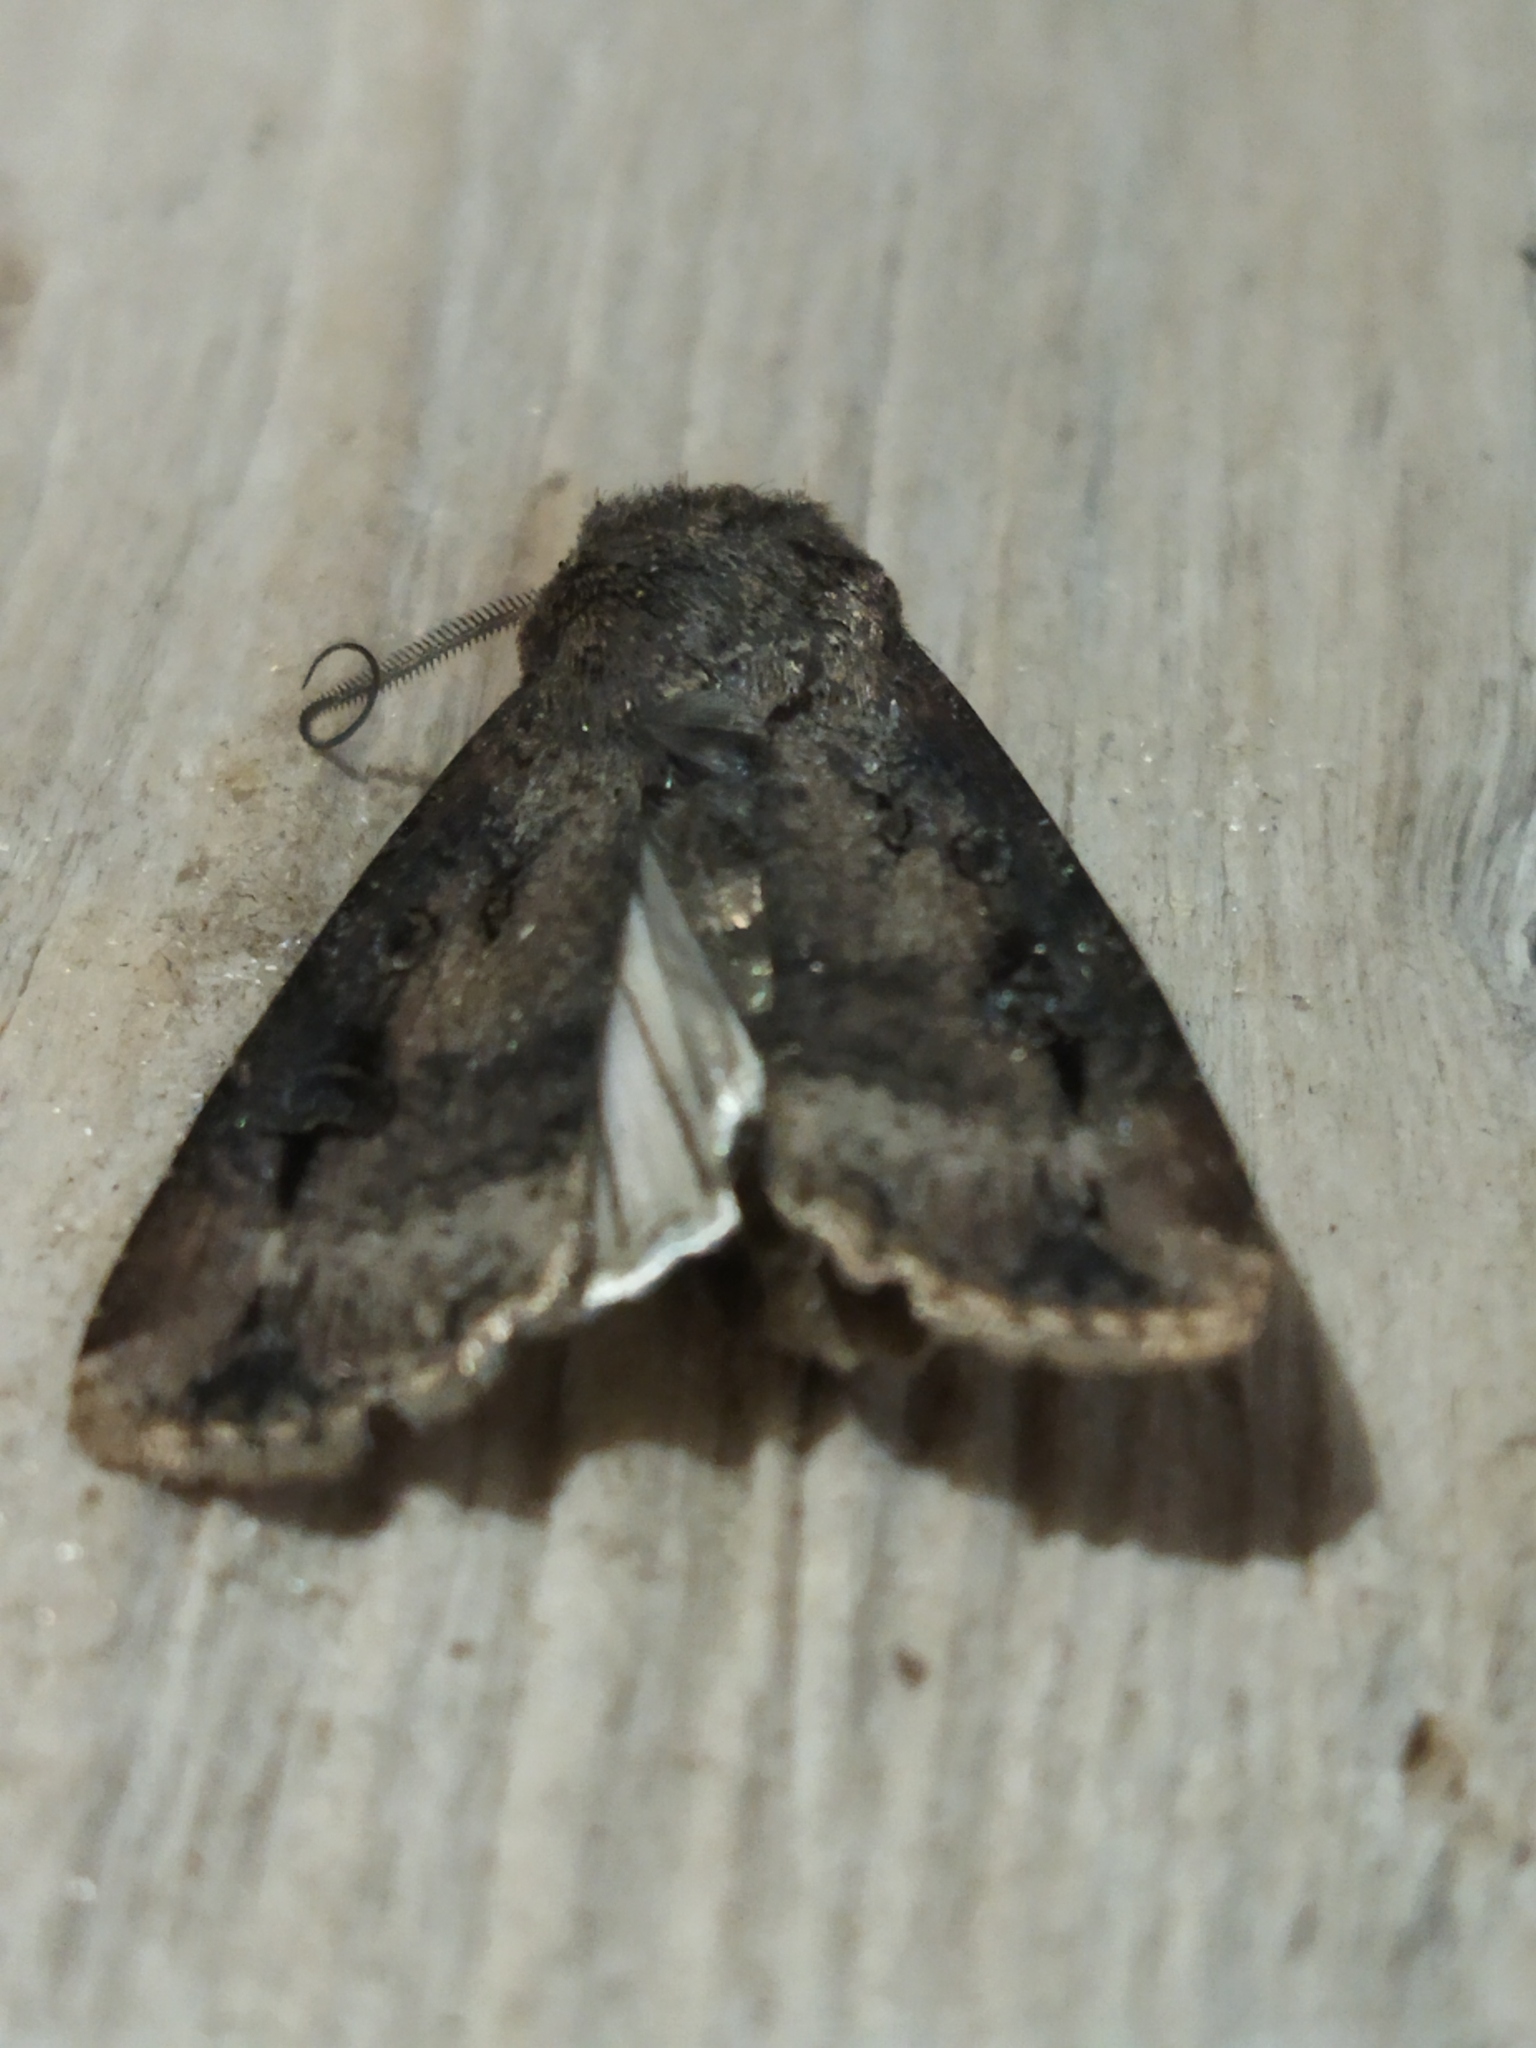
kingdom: Animalia
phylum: Arthropoda
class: Insecta
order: Lepidoptera
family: Noctuidae
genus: Agrotis
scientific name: Agrotis ipsilon
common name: Dark sword-grass
